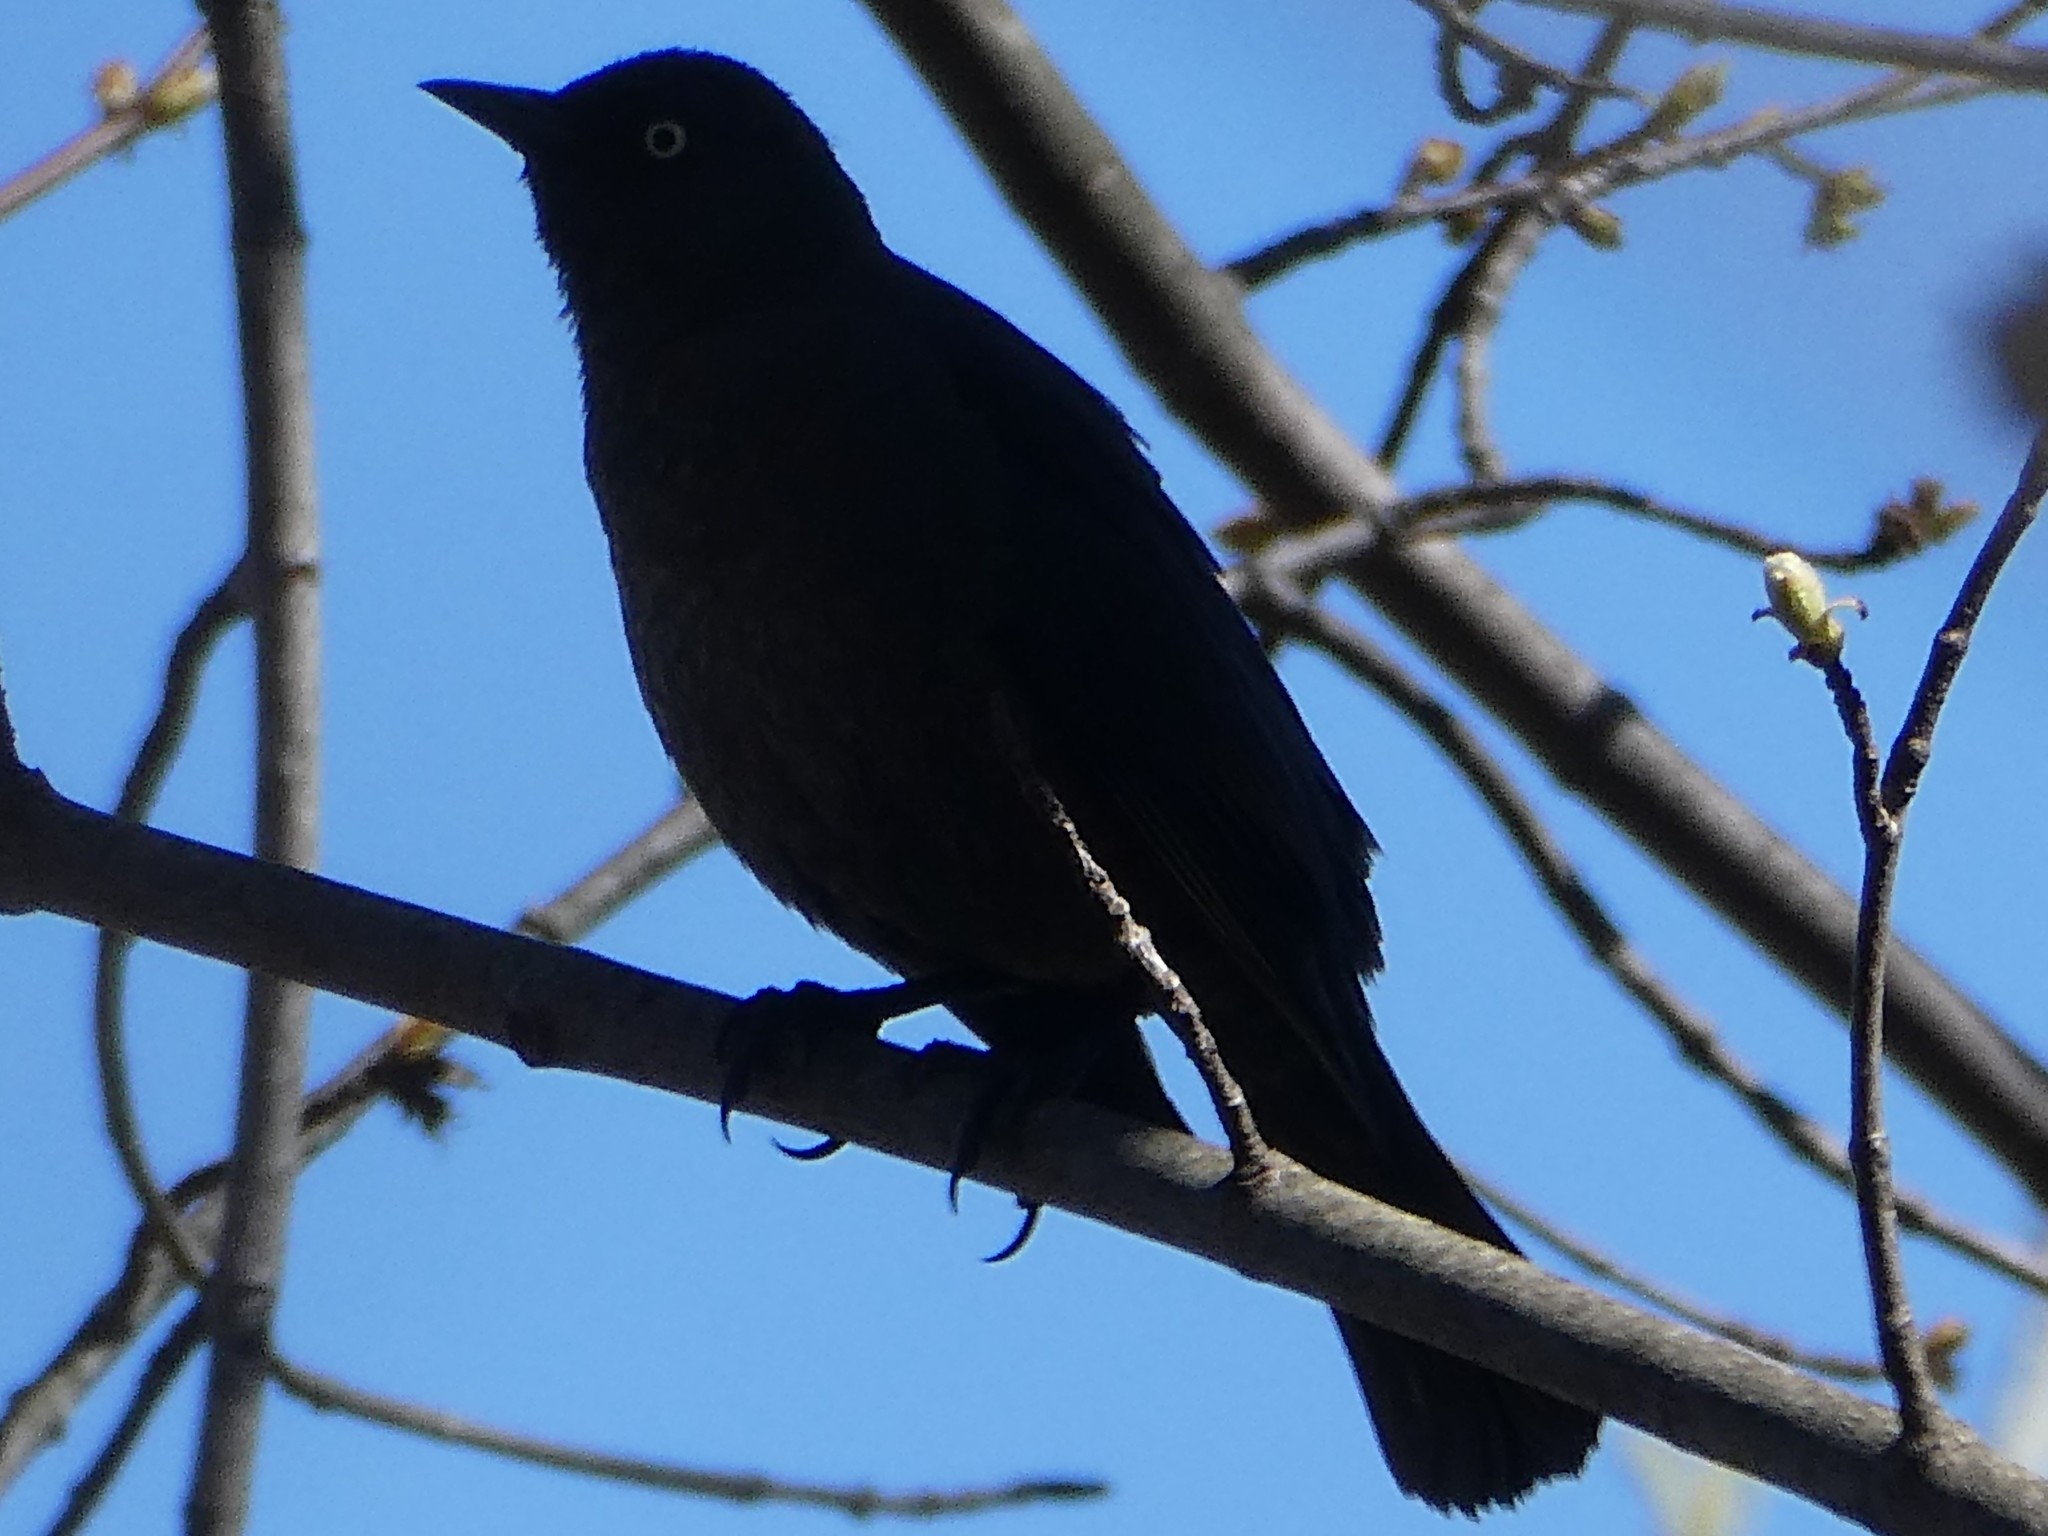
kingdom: Animalia
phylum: Chordata
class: Aves
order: Passeriformes
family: Icteridae
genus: Euphagus
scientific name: Euphagus carolinus
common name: Rusty blackbird
